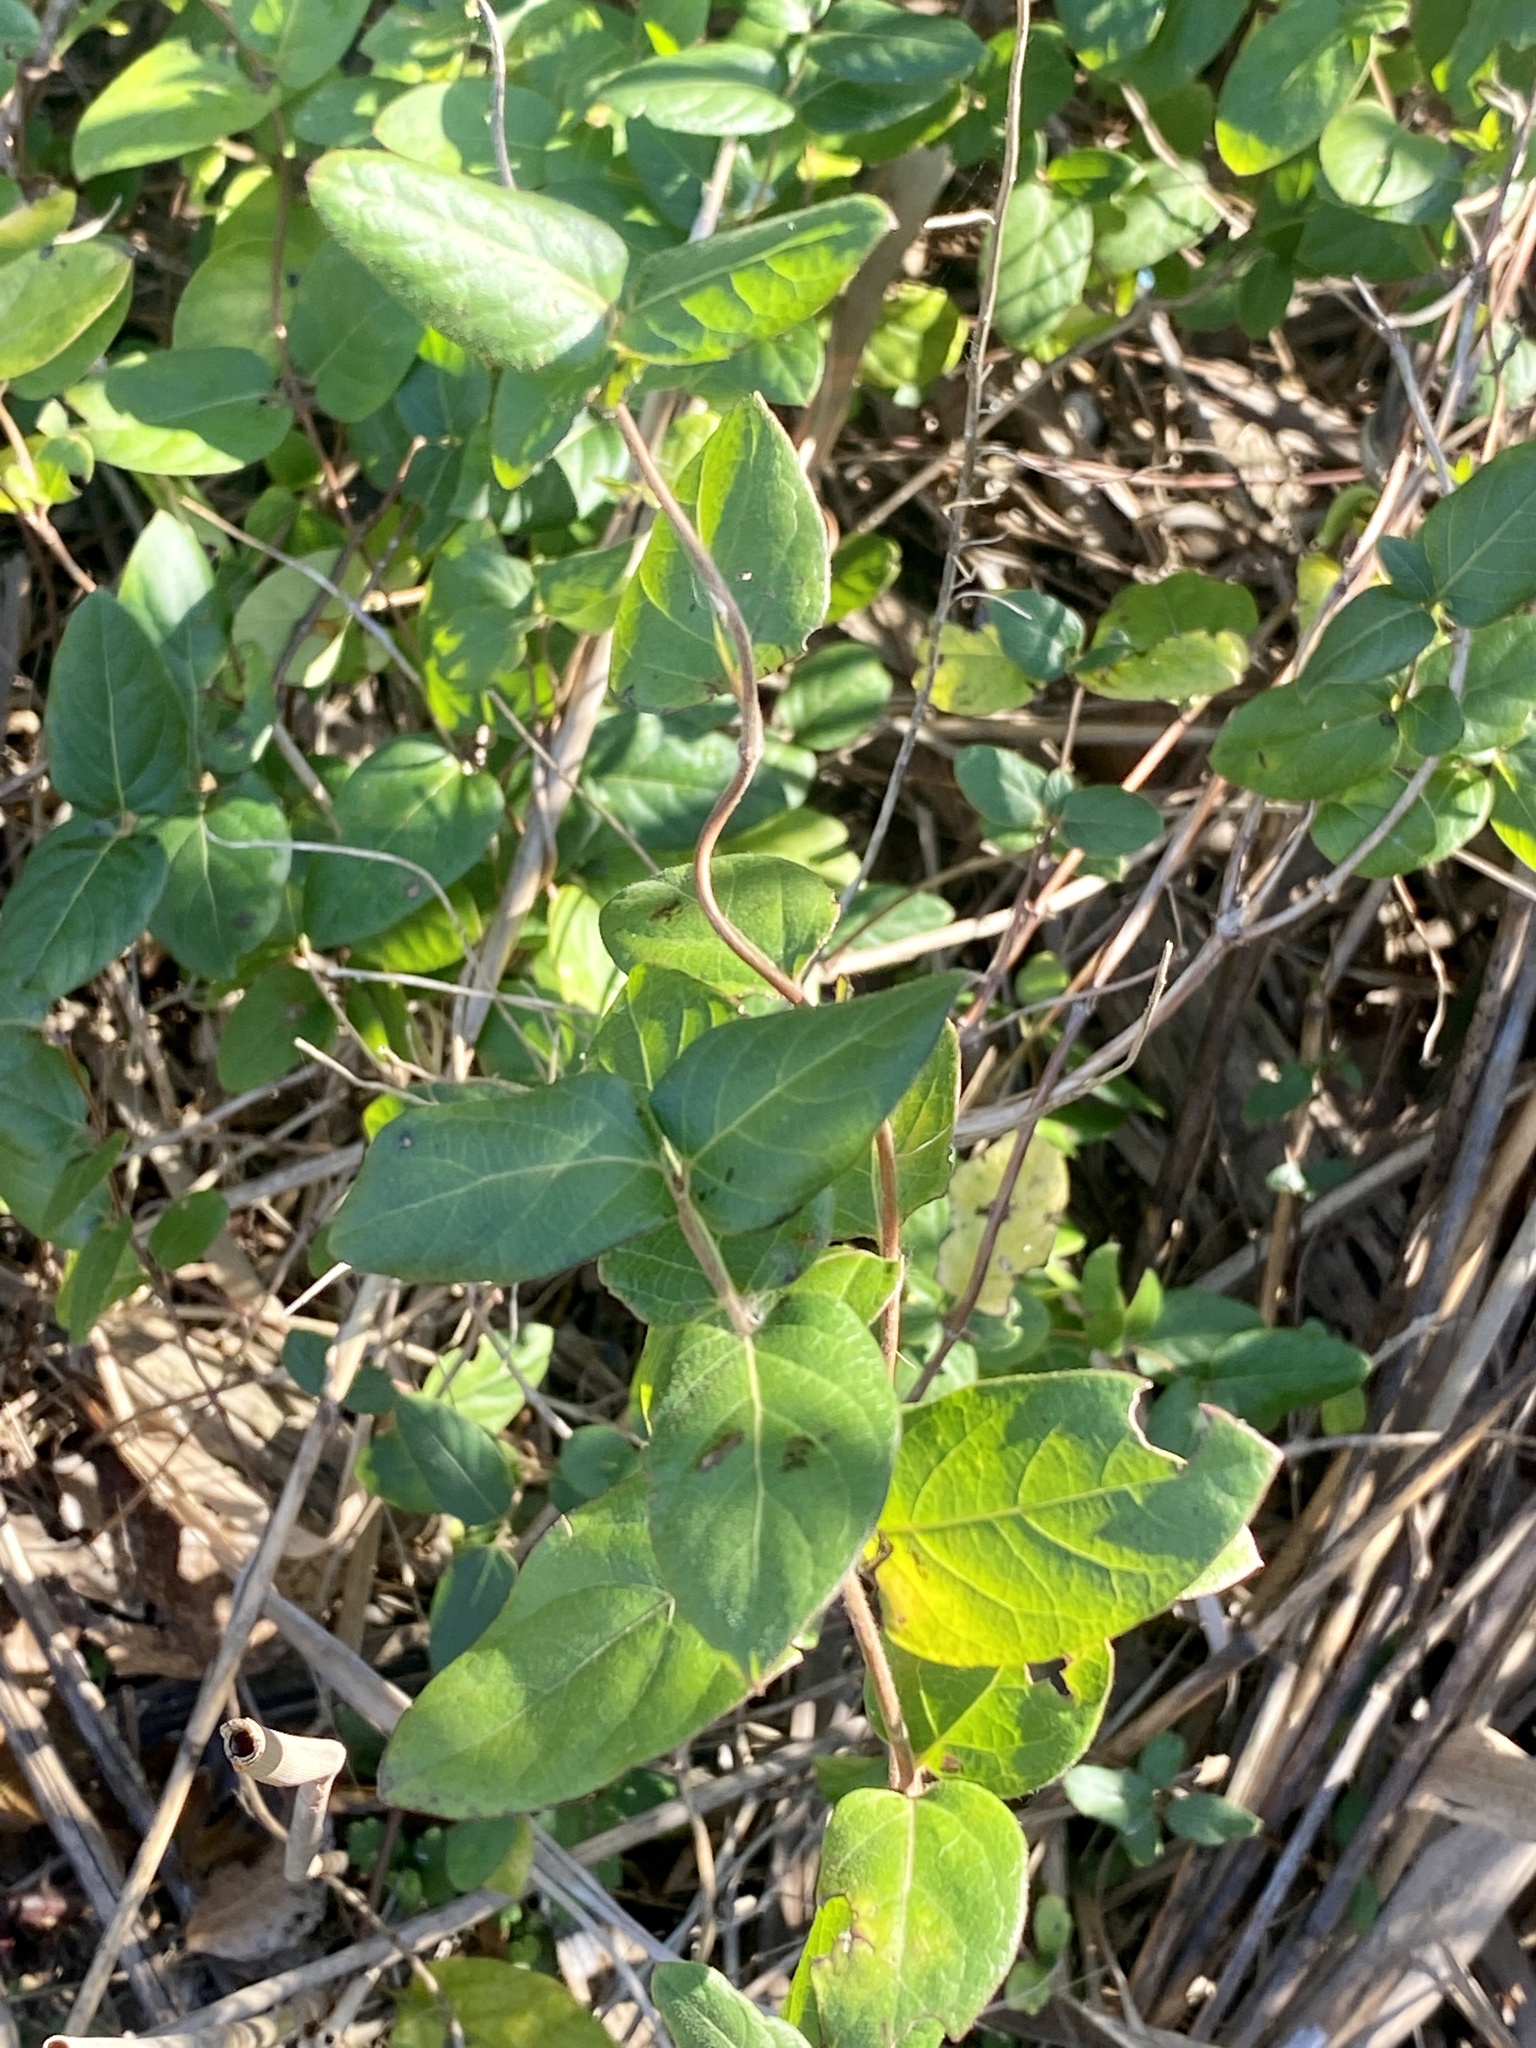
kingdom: Plantae
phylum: Tracheophyta
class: Magnoliopsida
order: Dipsacales
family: Caprifoliaceae
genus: Lonicera
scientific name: Lonicera japonica
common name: Japanese honeysuckle
